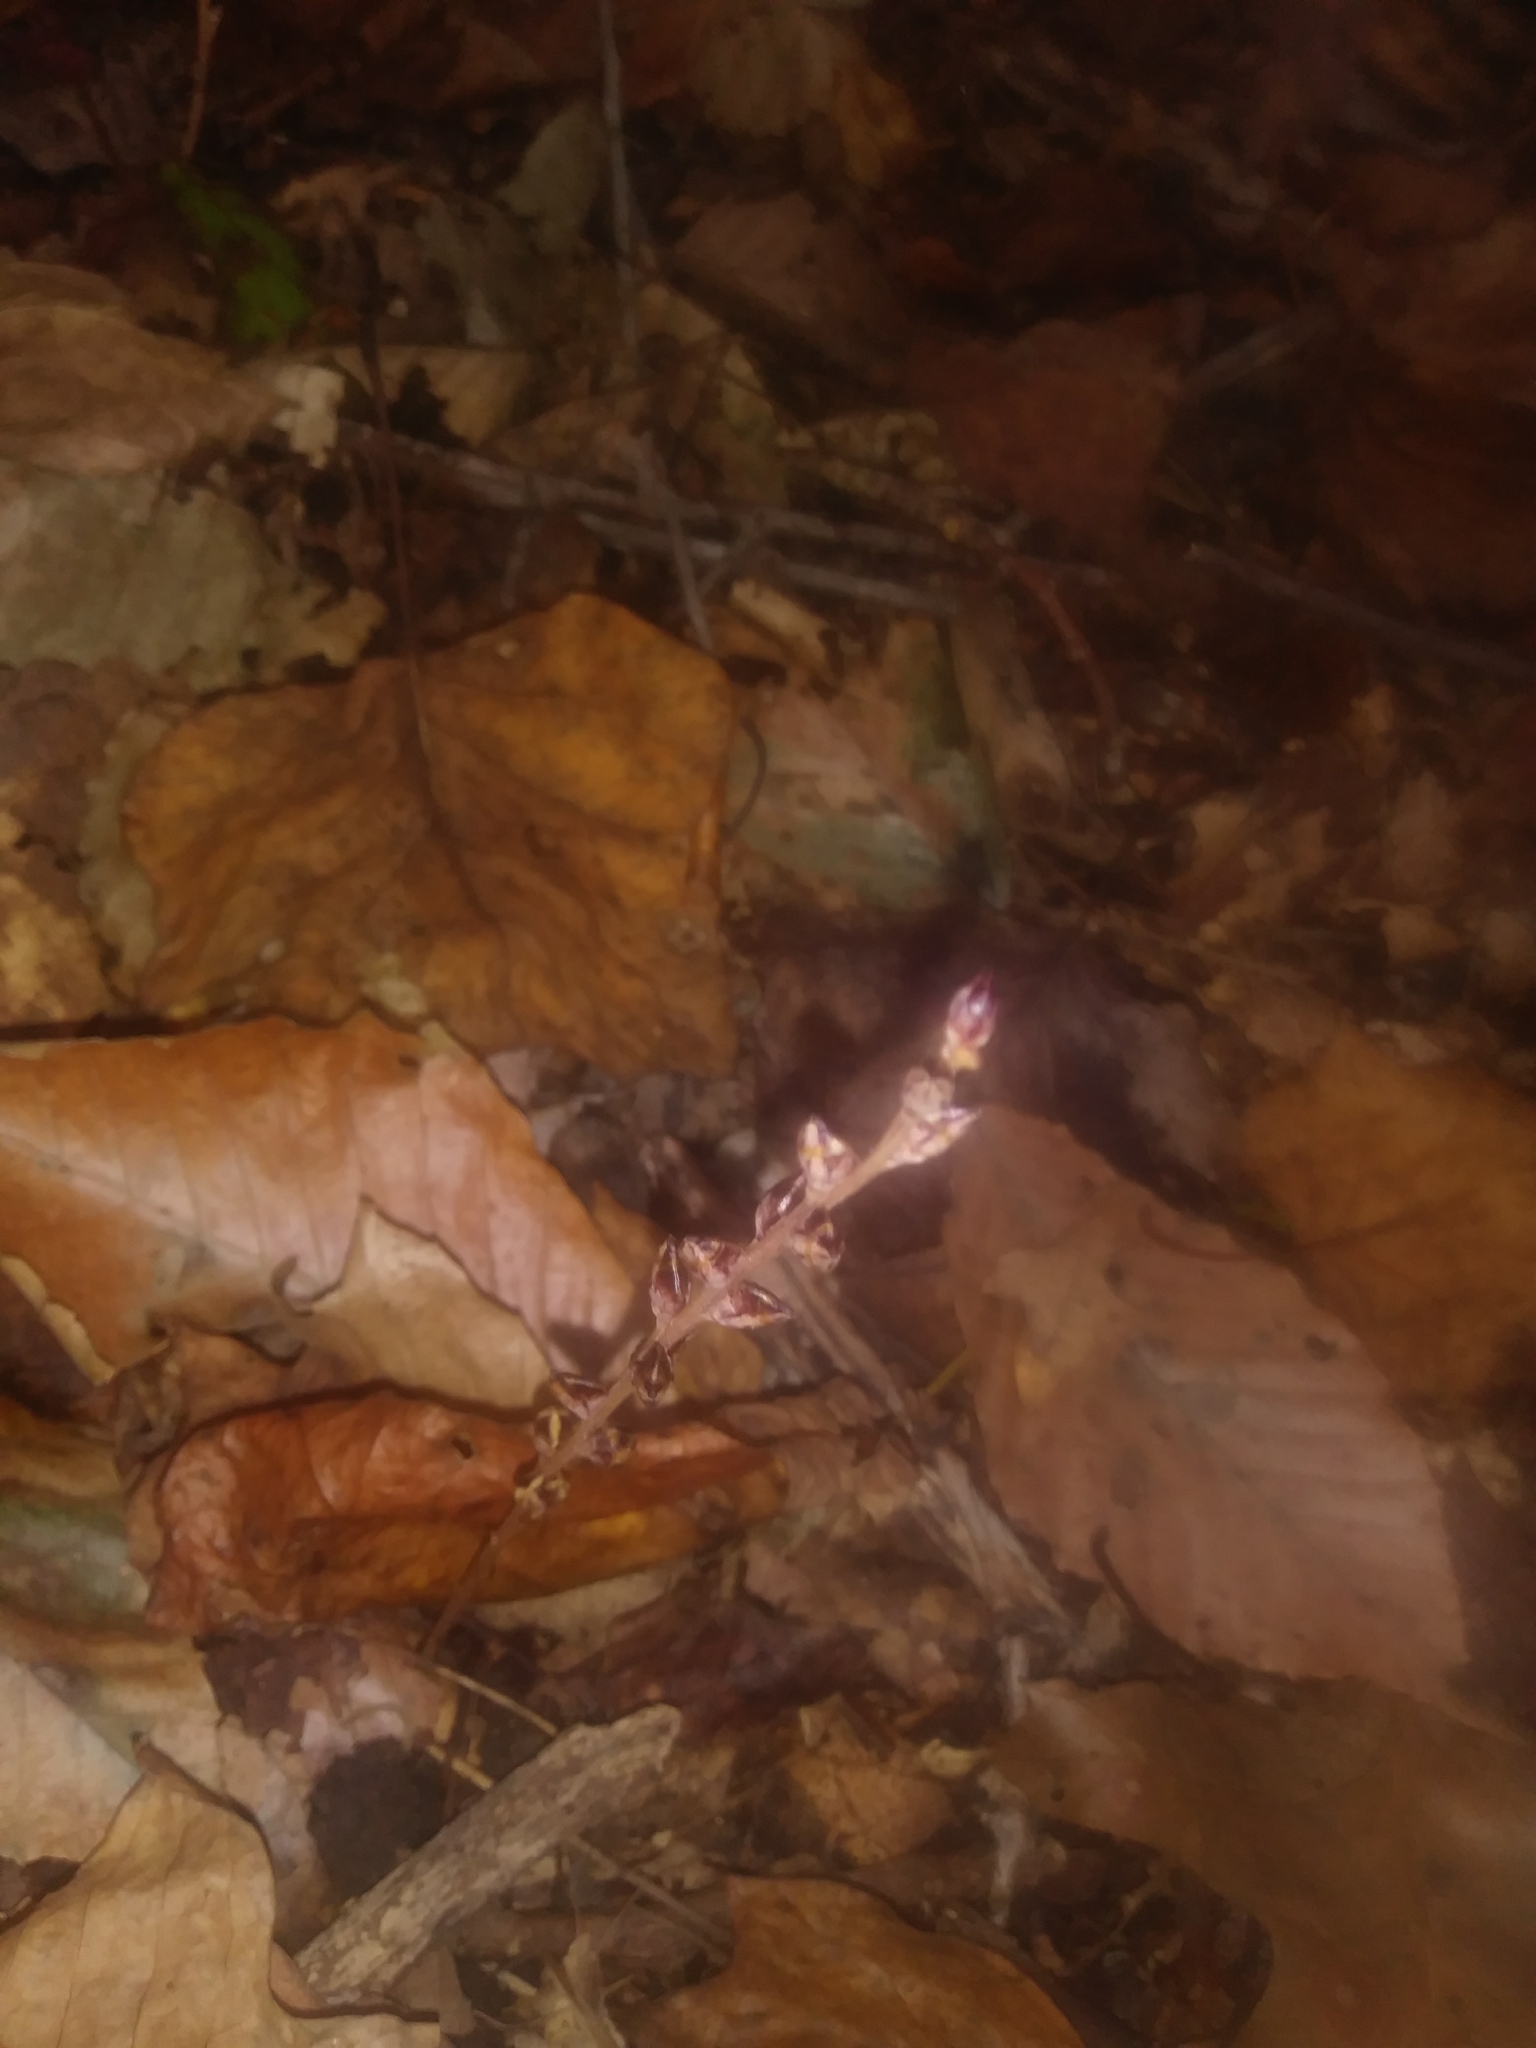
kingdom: Plantae
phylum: Tracheophyta
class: Magnoliopsida
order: Lamiales
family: Orobanchaceae
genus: Epifagus
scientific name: Epifagus virginiana
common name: Beechdrops
